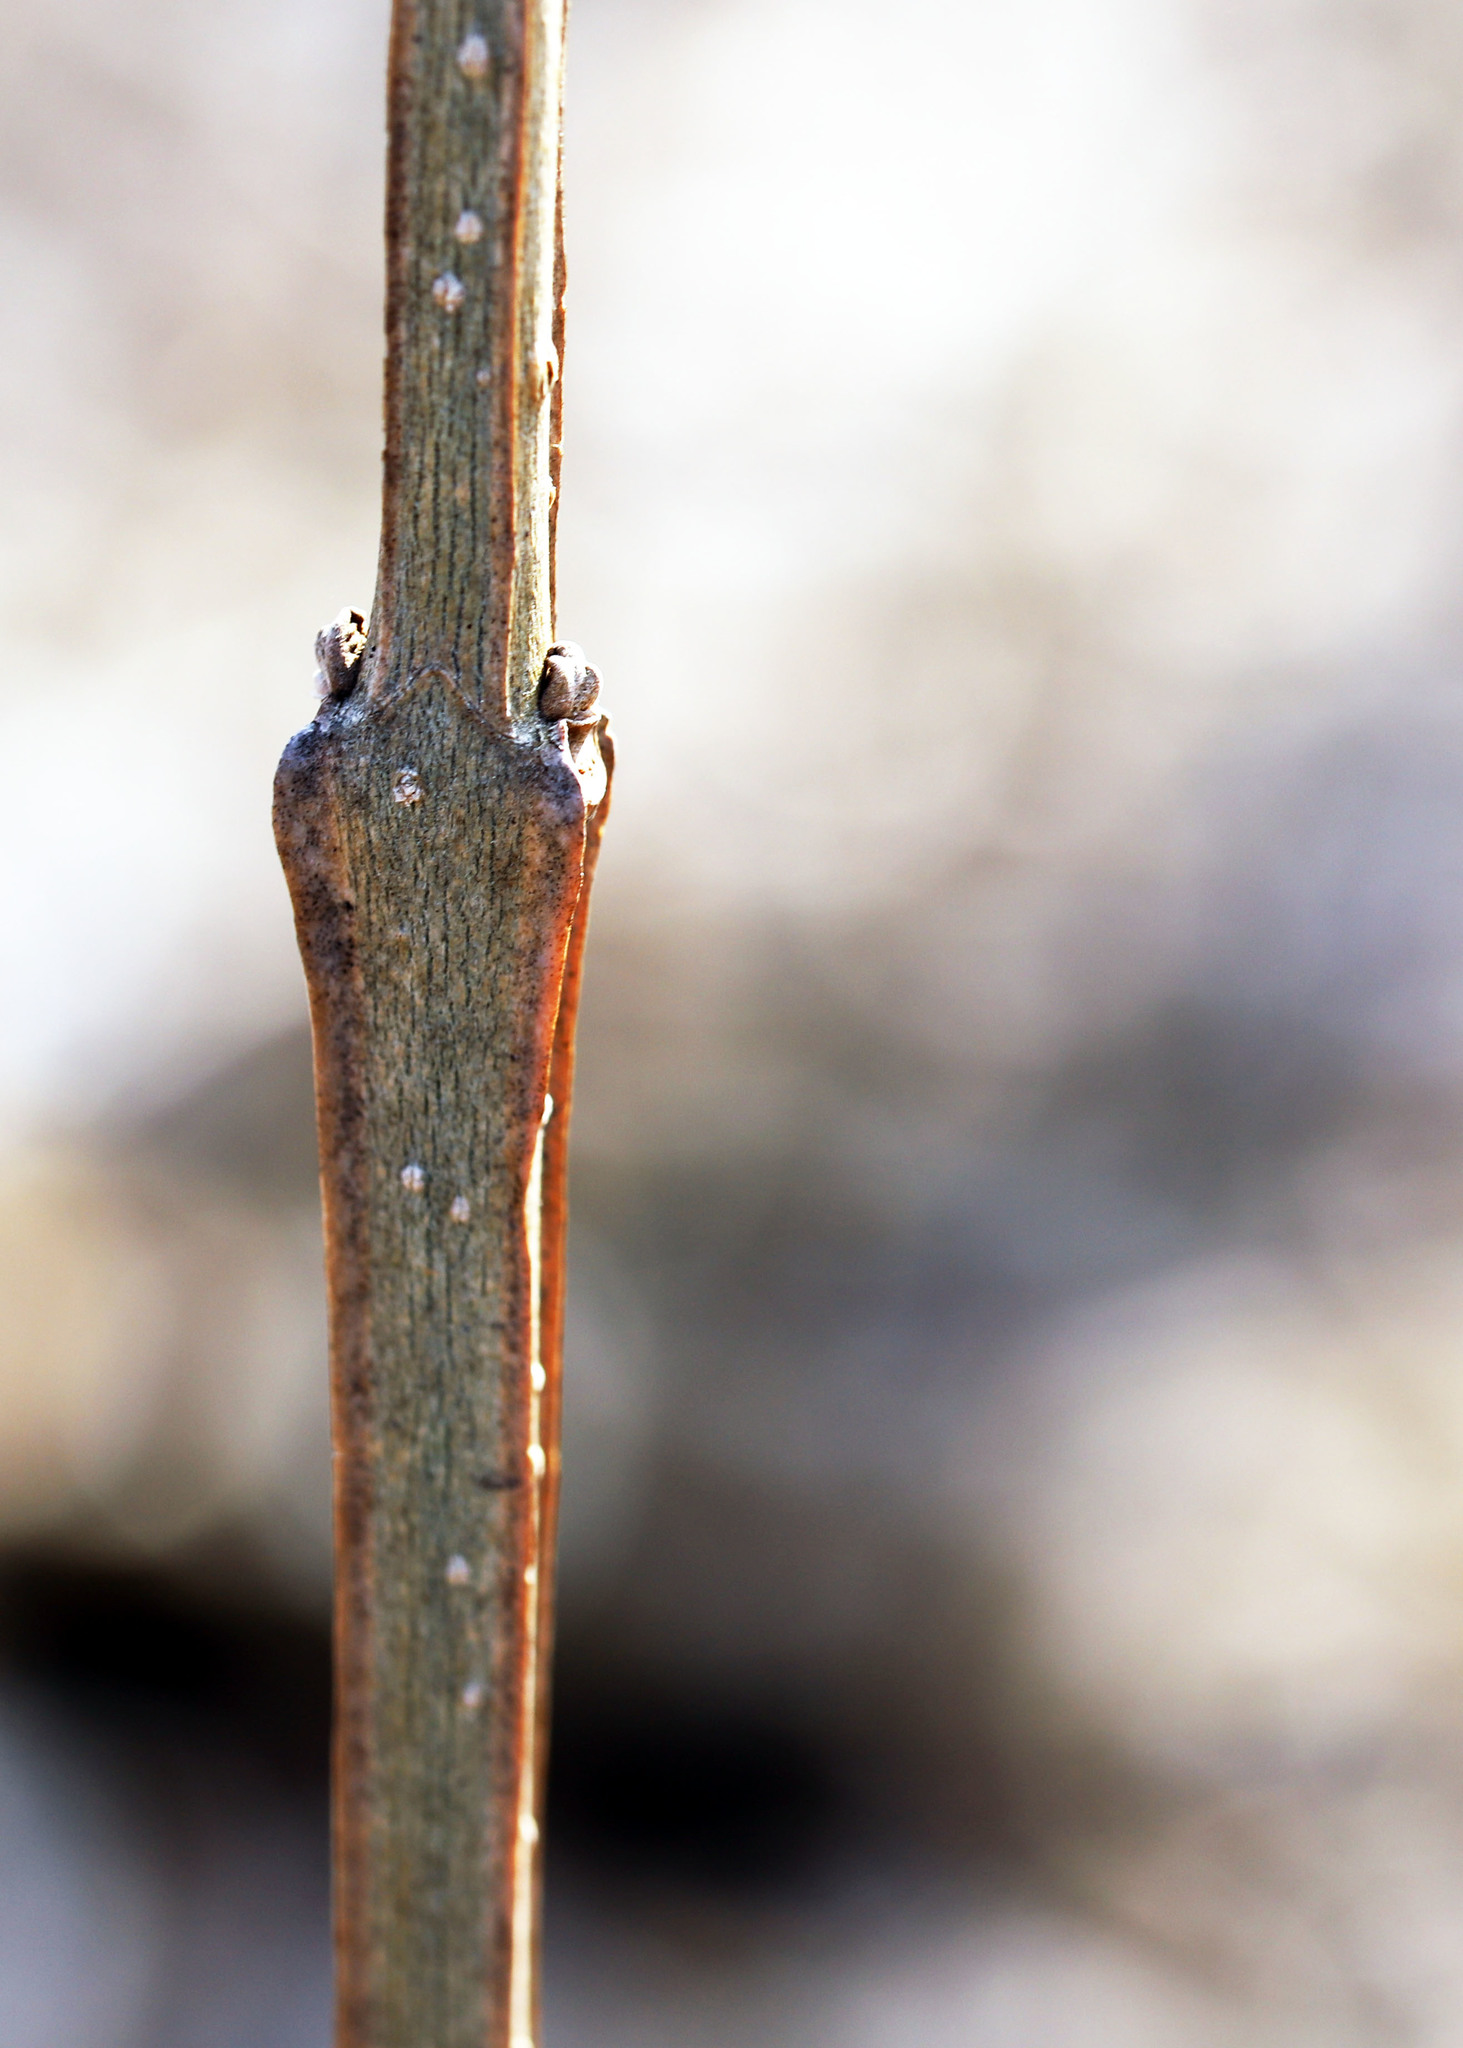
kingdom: Plantae
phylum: Tracheophyta
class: Magnoliopsida
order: Lamiales
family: Oleaceae
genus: Fraxinus
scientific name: Fraxinus quadrangulata
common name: Blue ash
